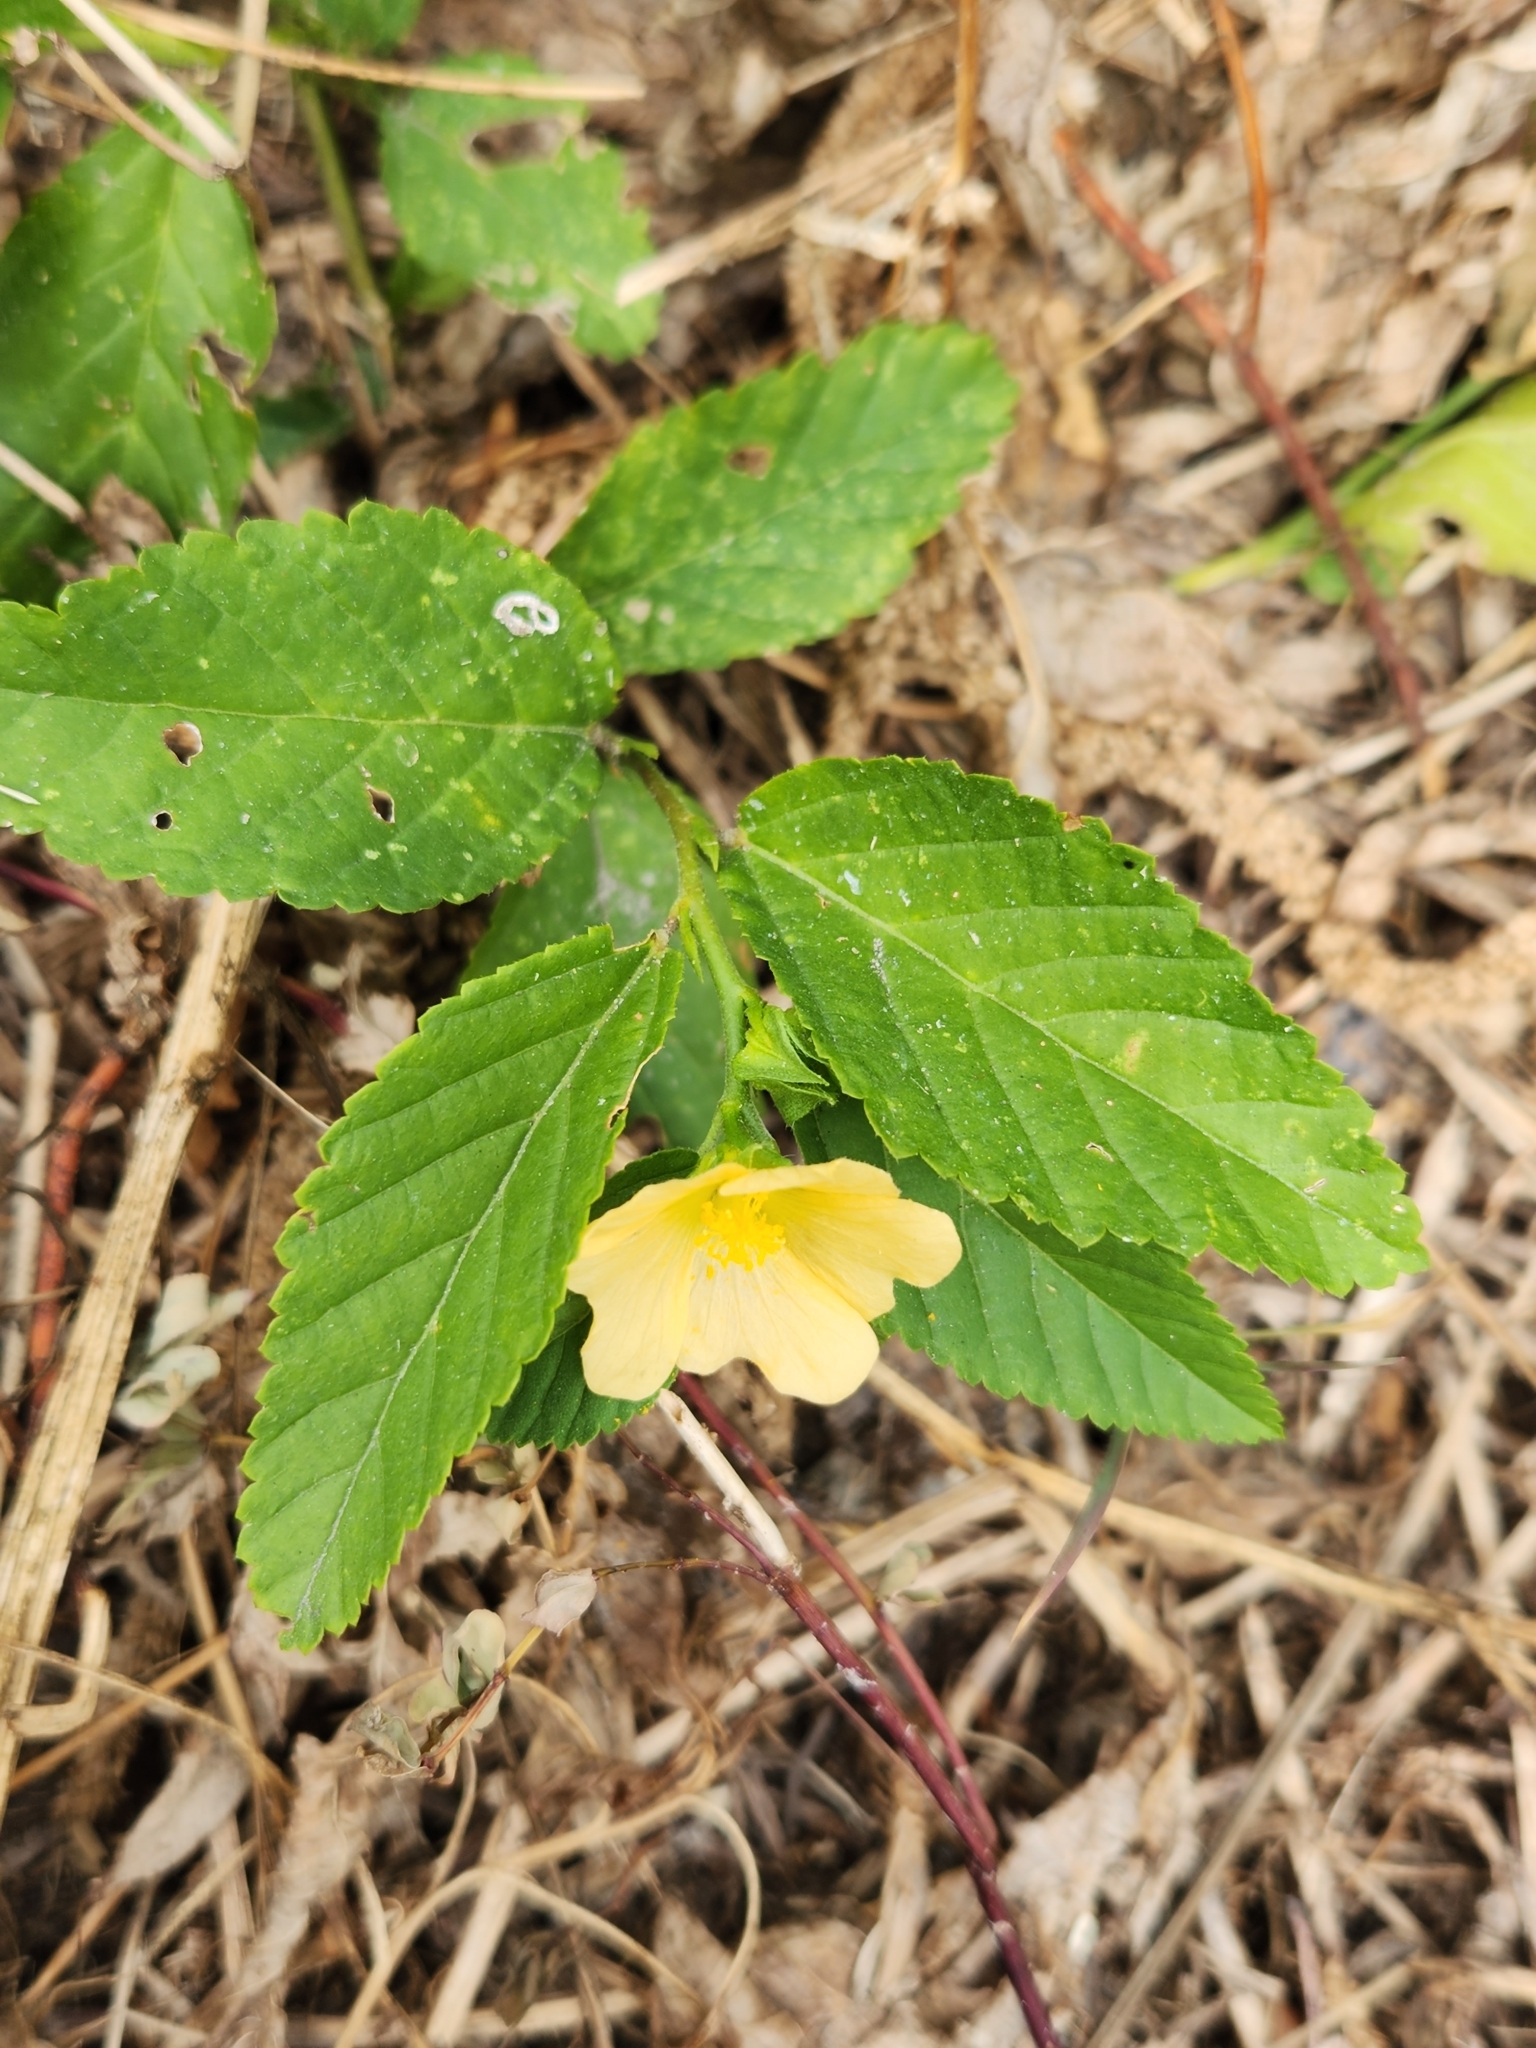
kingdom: Plantae
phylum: Tracheophyta
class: Magnoliopsida
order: Malvales
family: Malvaceae
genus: Sida
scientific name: Sida ulmifolia
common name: Broom weed
